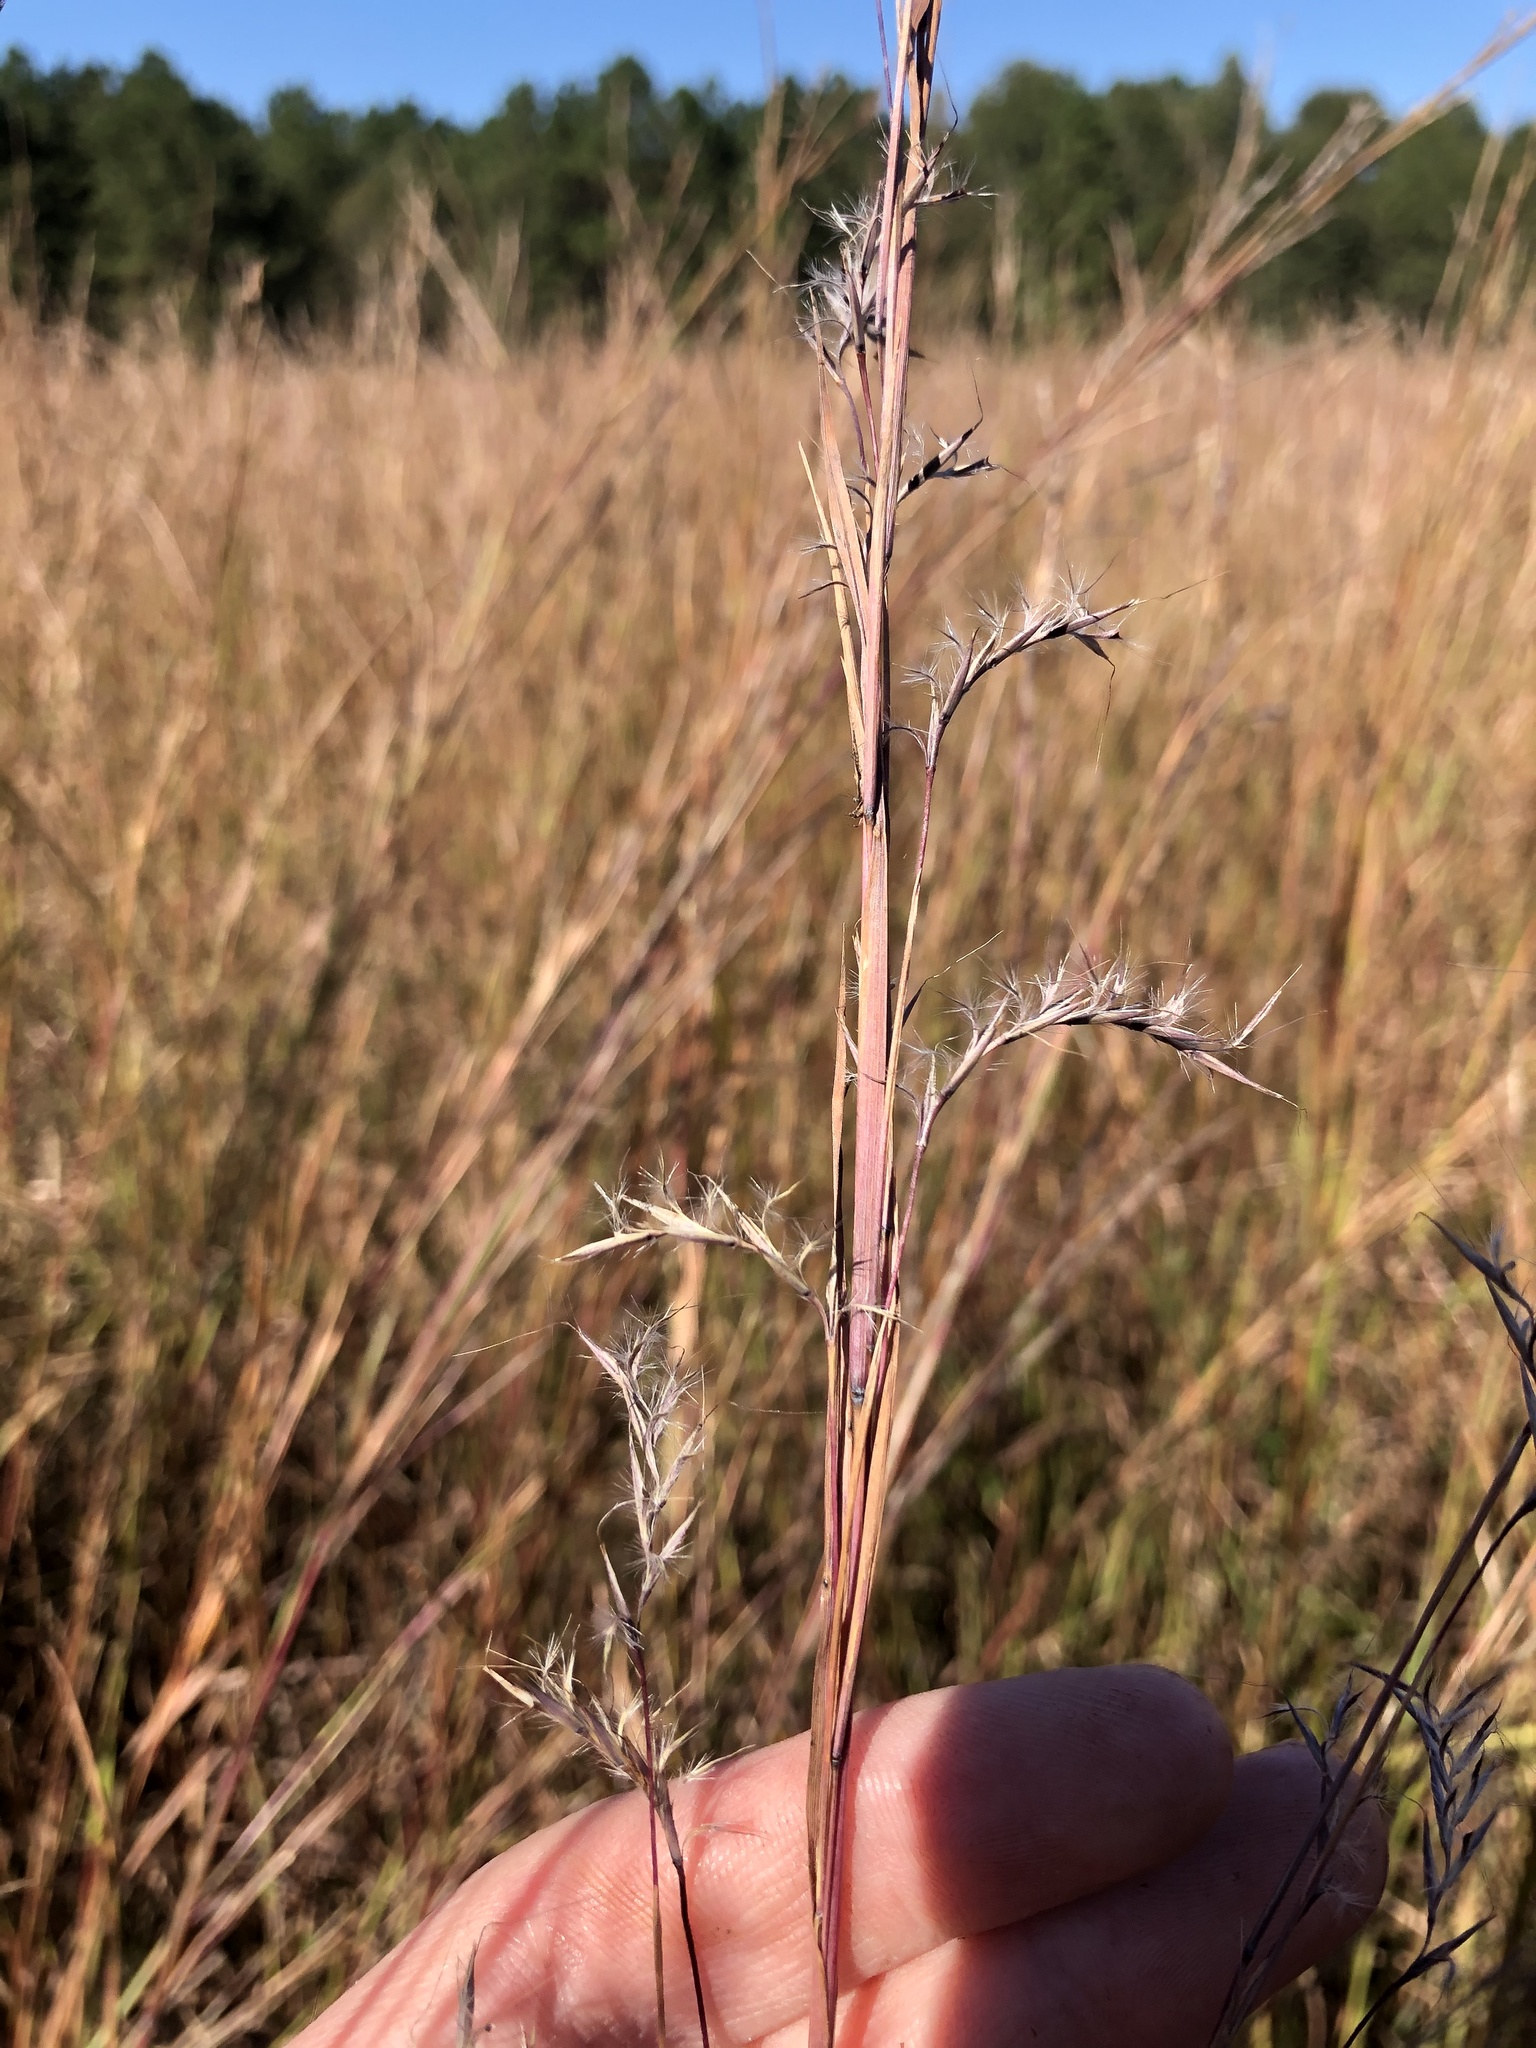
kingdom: Plantae
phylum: Tracheophyta
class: Liliopsida
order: Poales
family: Poaceae
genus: Schizachyrium
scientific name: Schizachyrium scoparium
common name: Little bluestem
